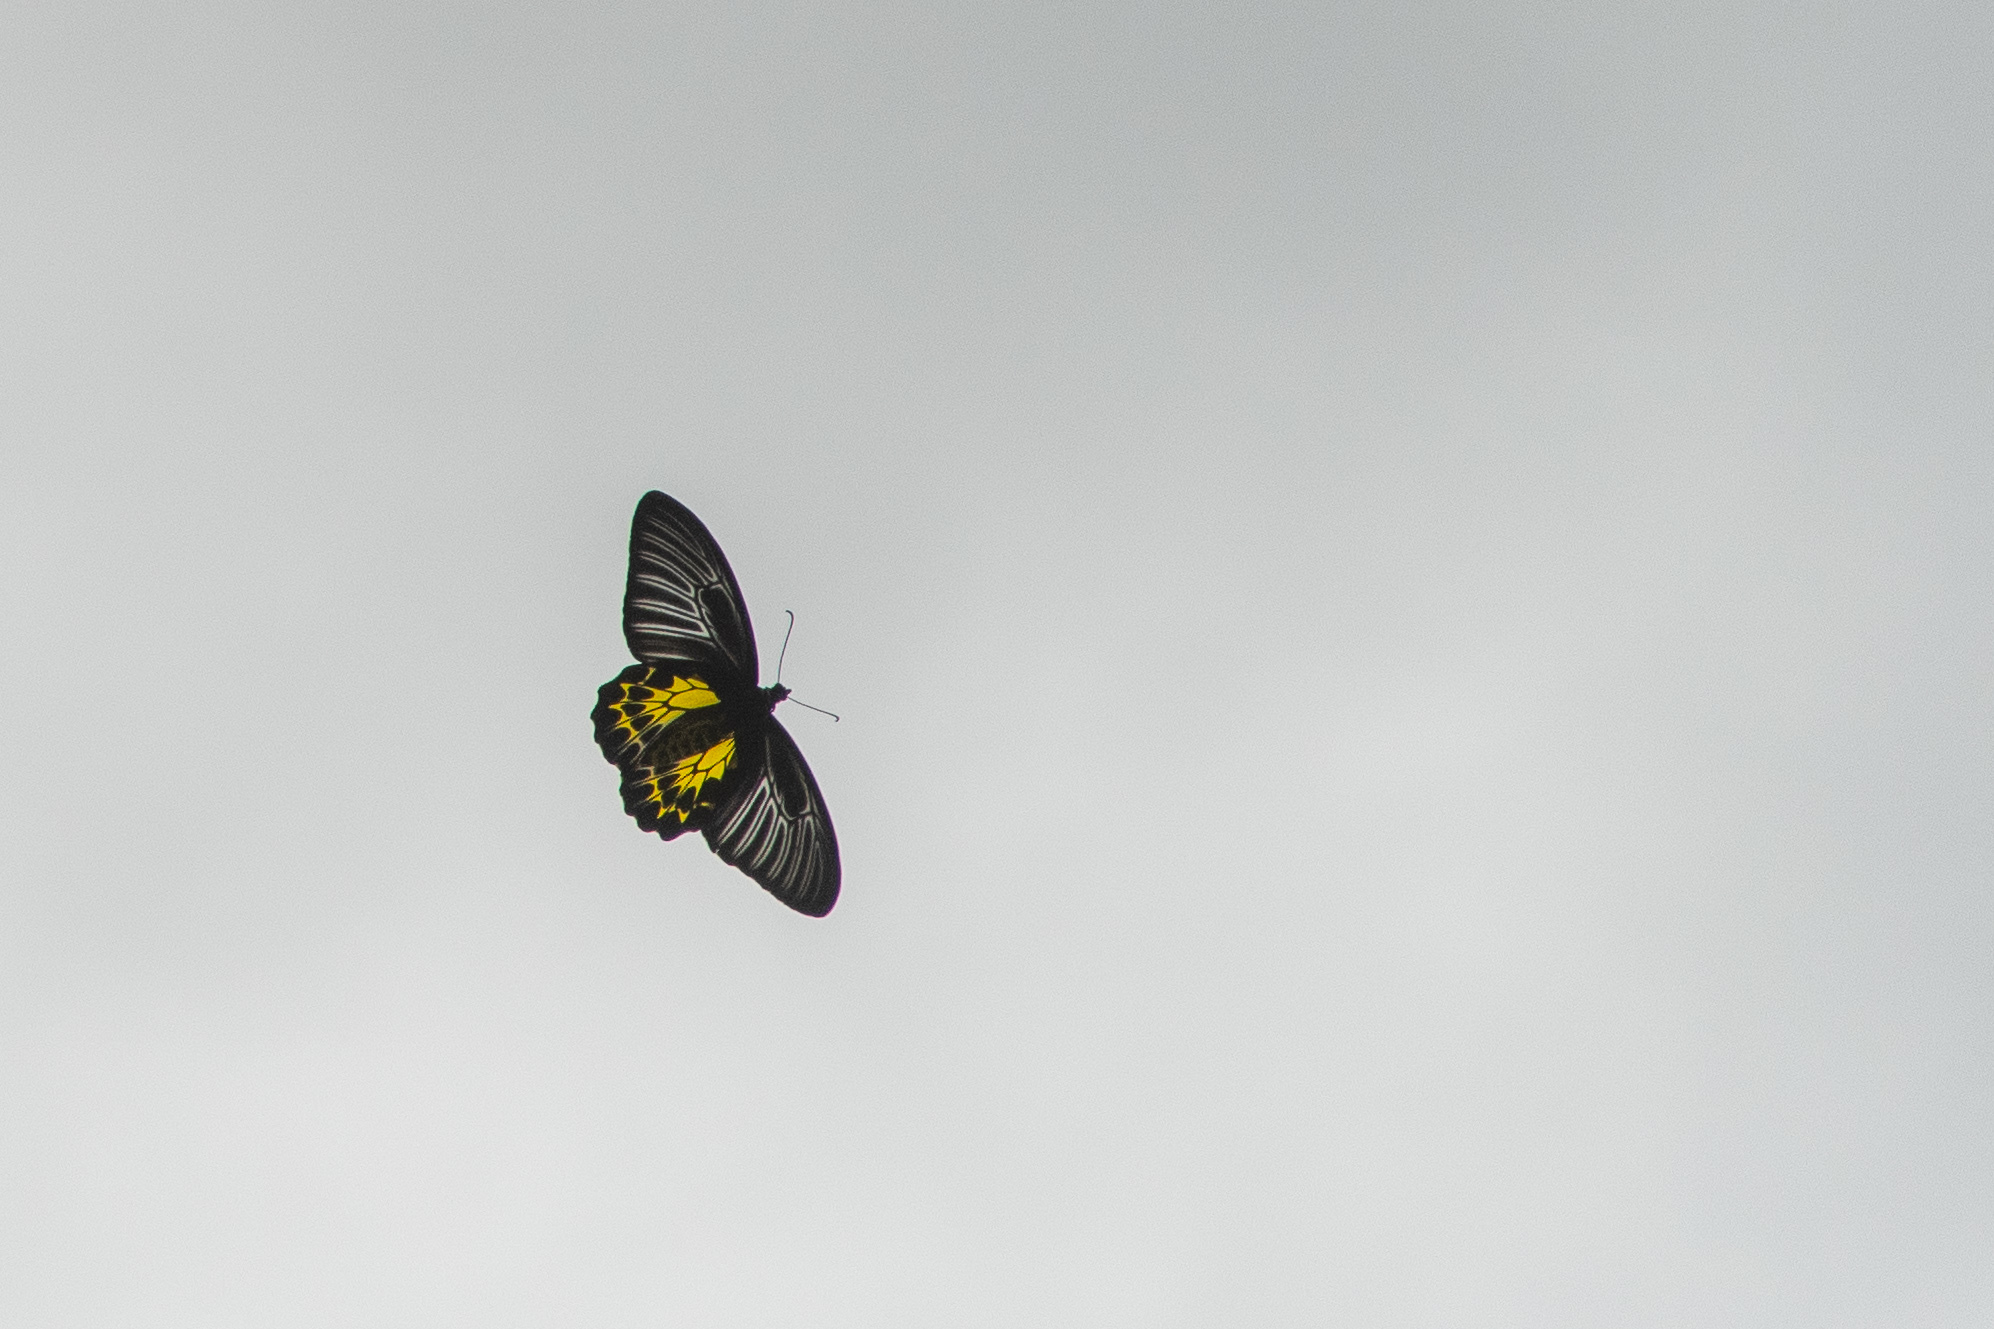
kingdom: Animalia
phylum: Arthropoda
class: Insecta
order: Lepidoptera
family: Papilionidae
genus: Troides
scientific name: Troides minos
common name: Malabar birdwing
